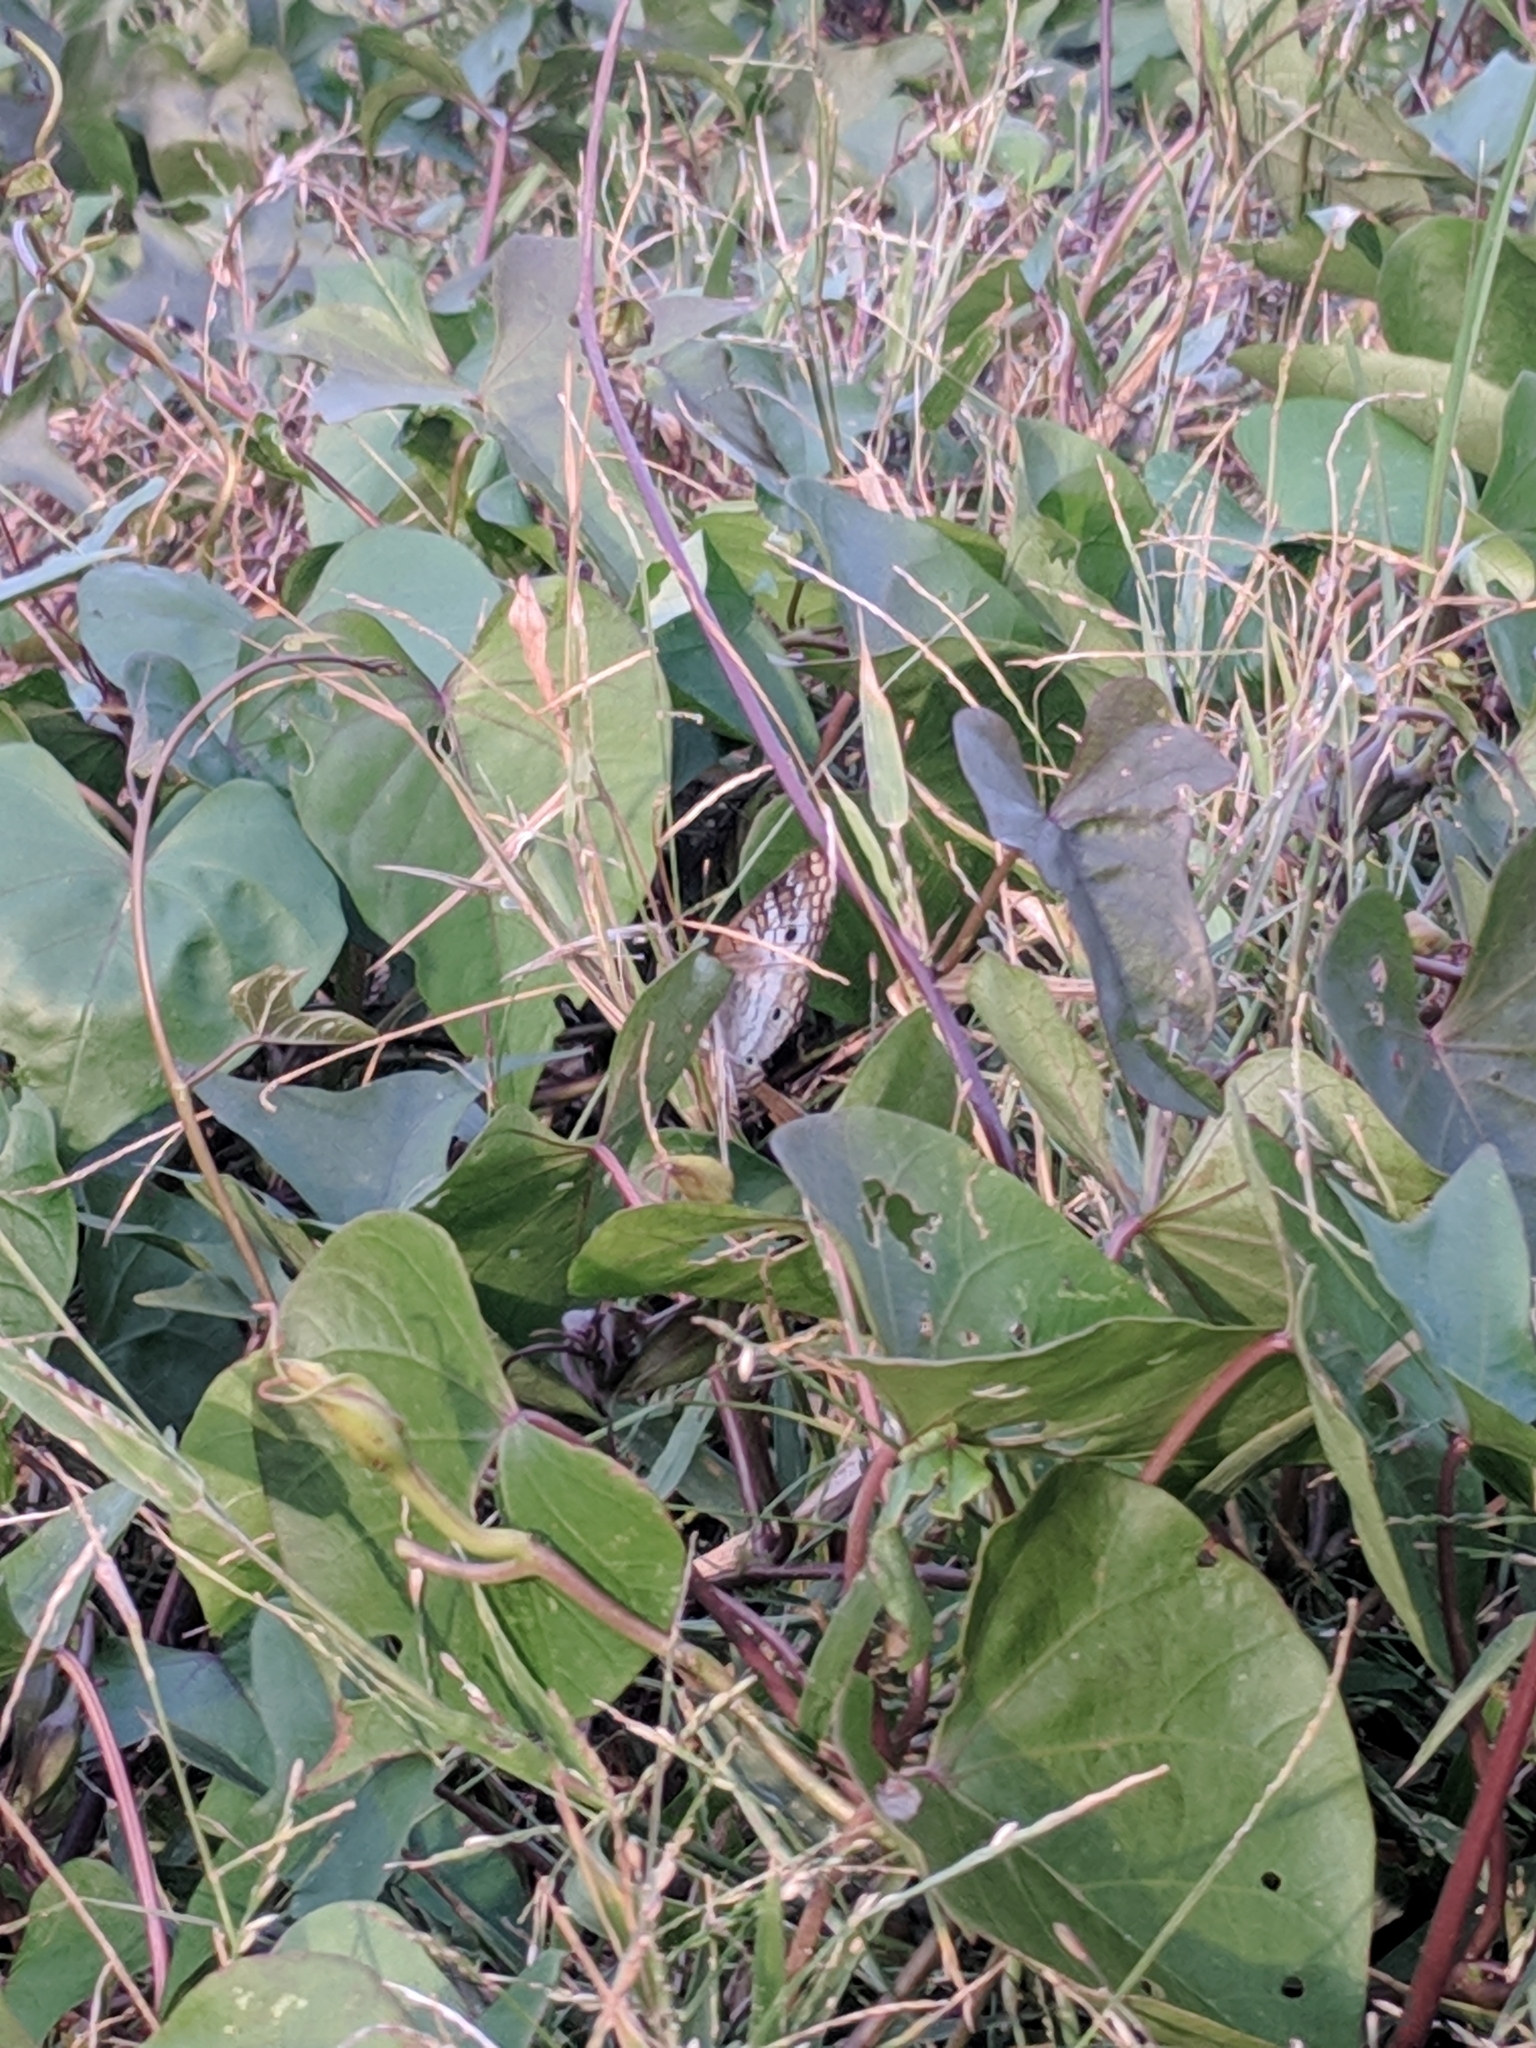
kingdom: Animalia
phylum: Arthropoda
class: Insecta
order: Lepidoptera
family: Nymphalidae
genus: Anartia
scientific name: Anartia jatrophae
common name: White peacock
